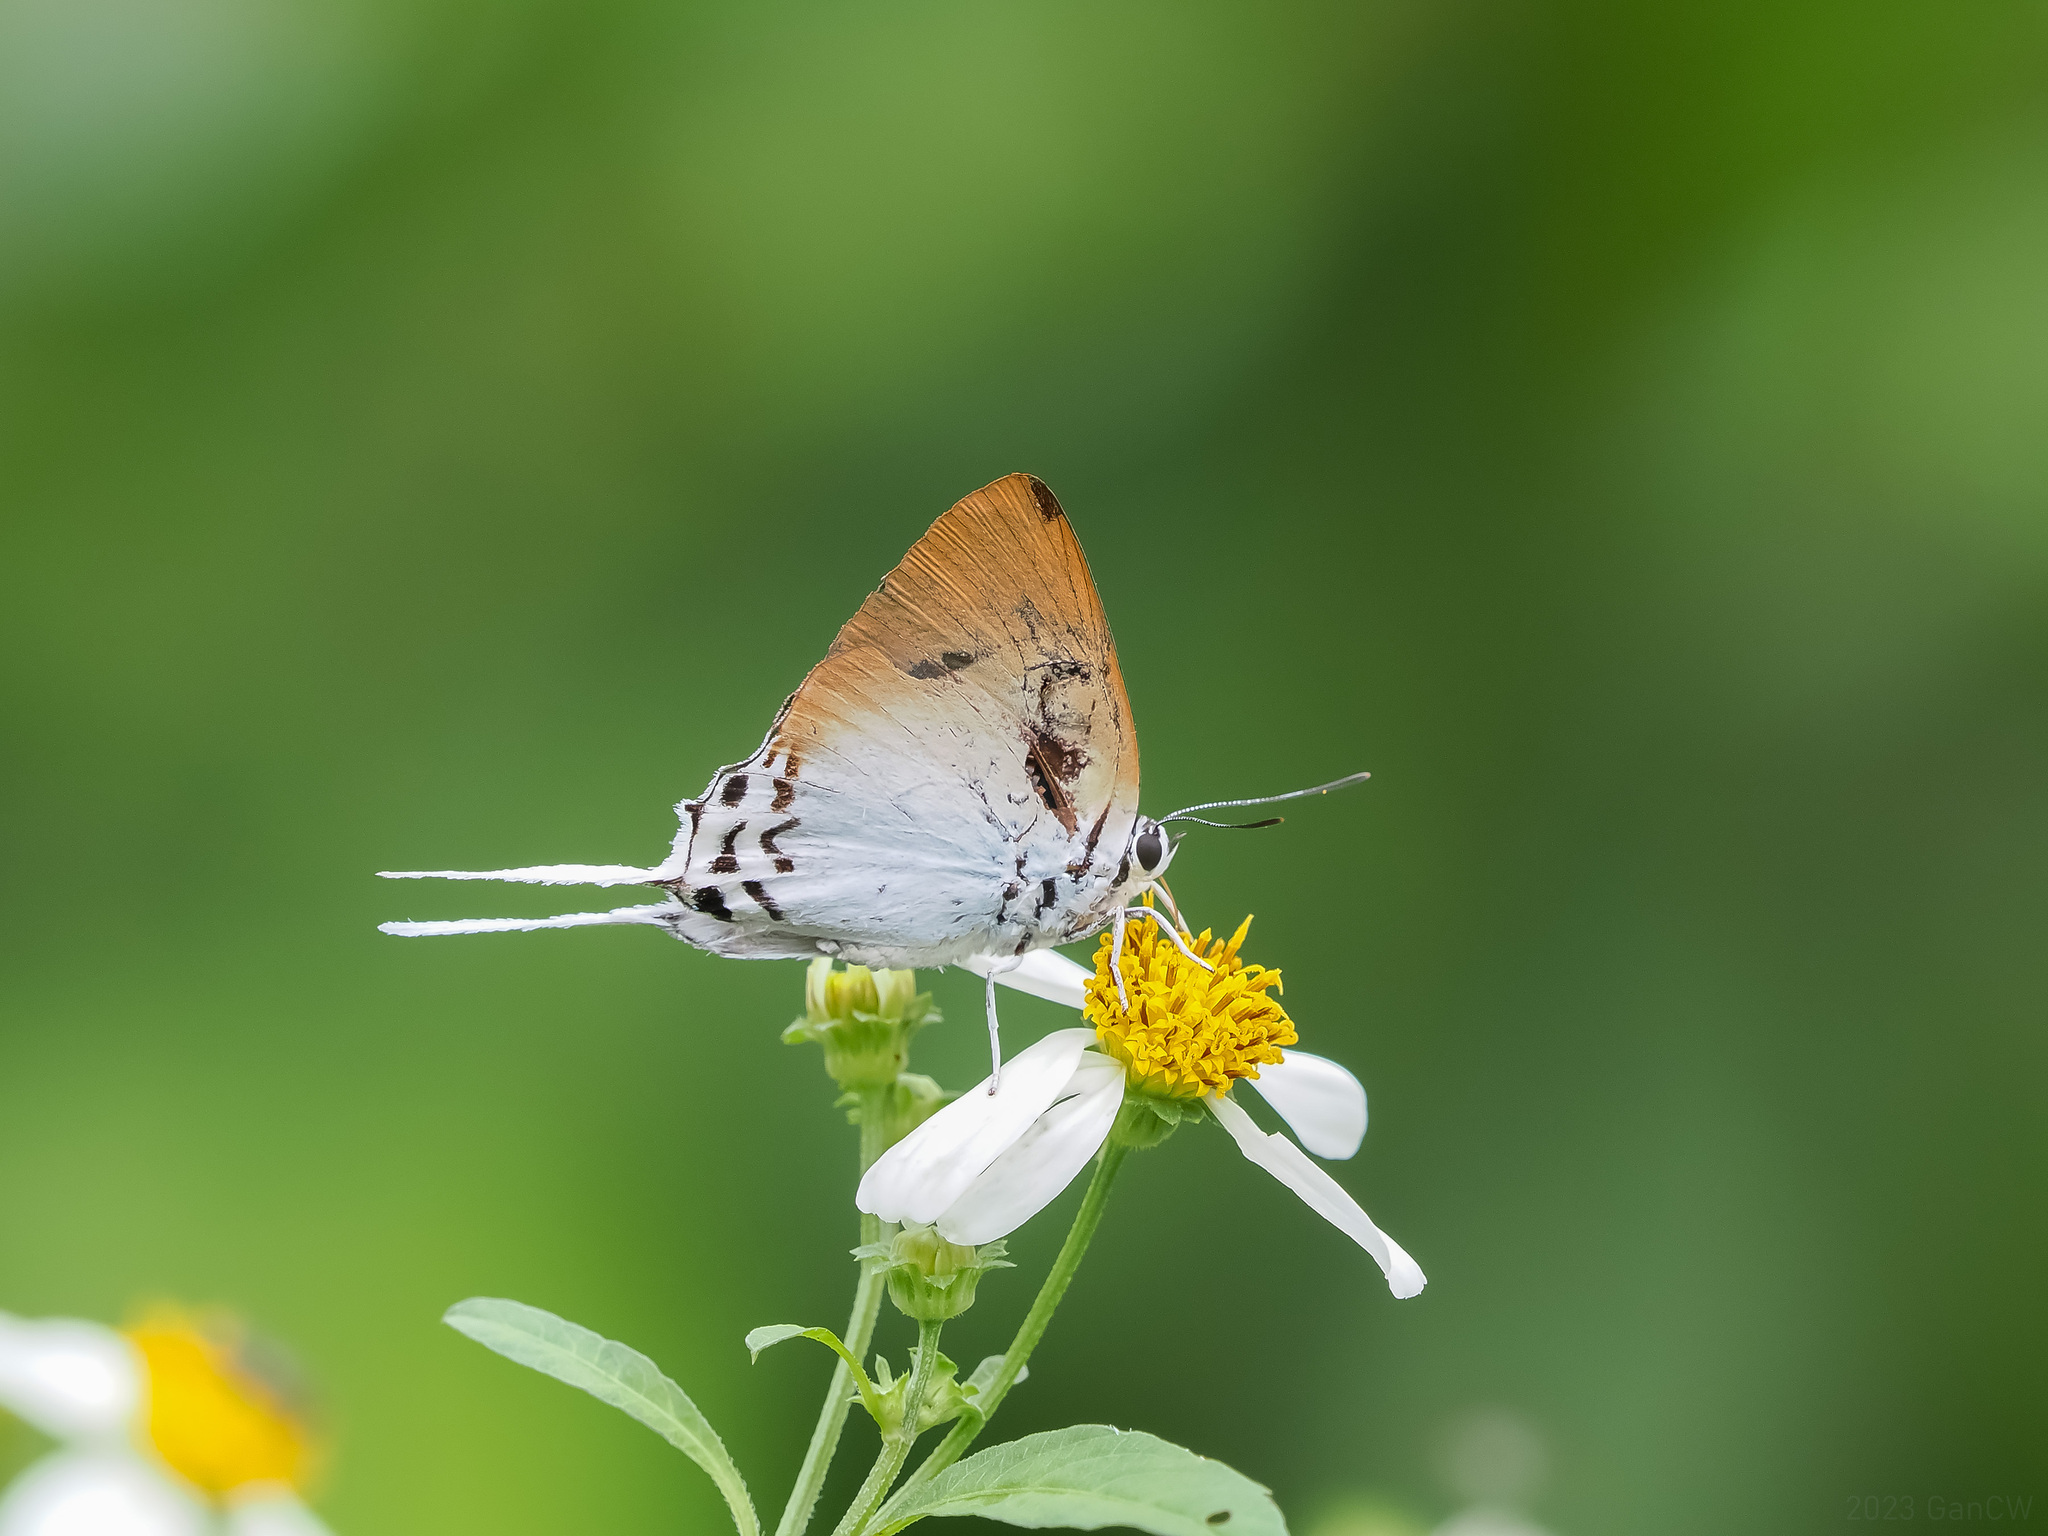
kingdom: Animalia
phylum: Arthropoda
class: Insecta
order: Lepidoptera
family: Lycaenidae
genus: Jacoona
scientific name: Jacoona anasuja
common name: Great imperial
